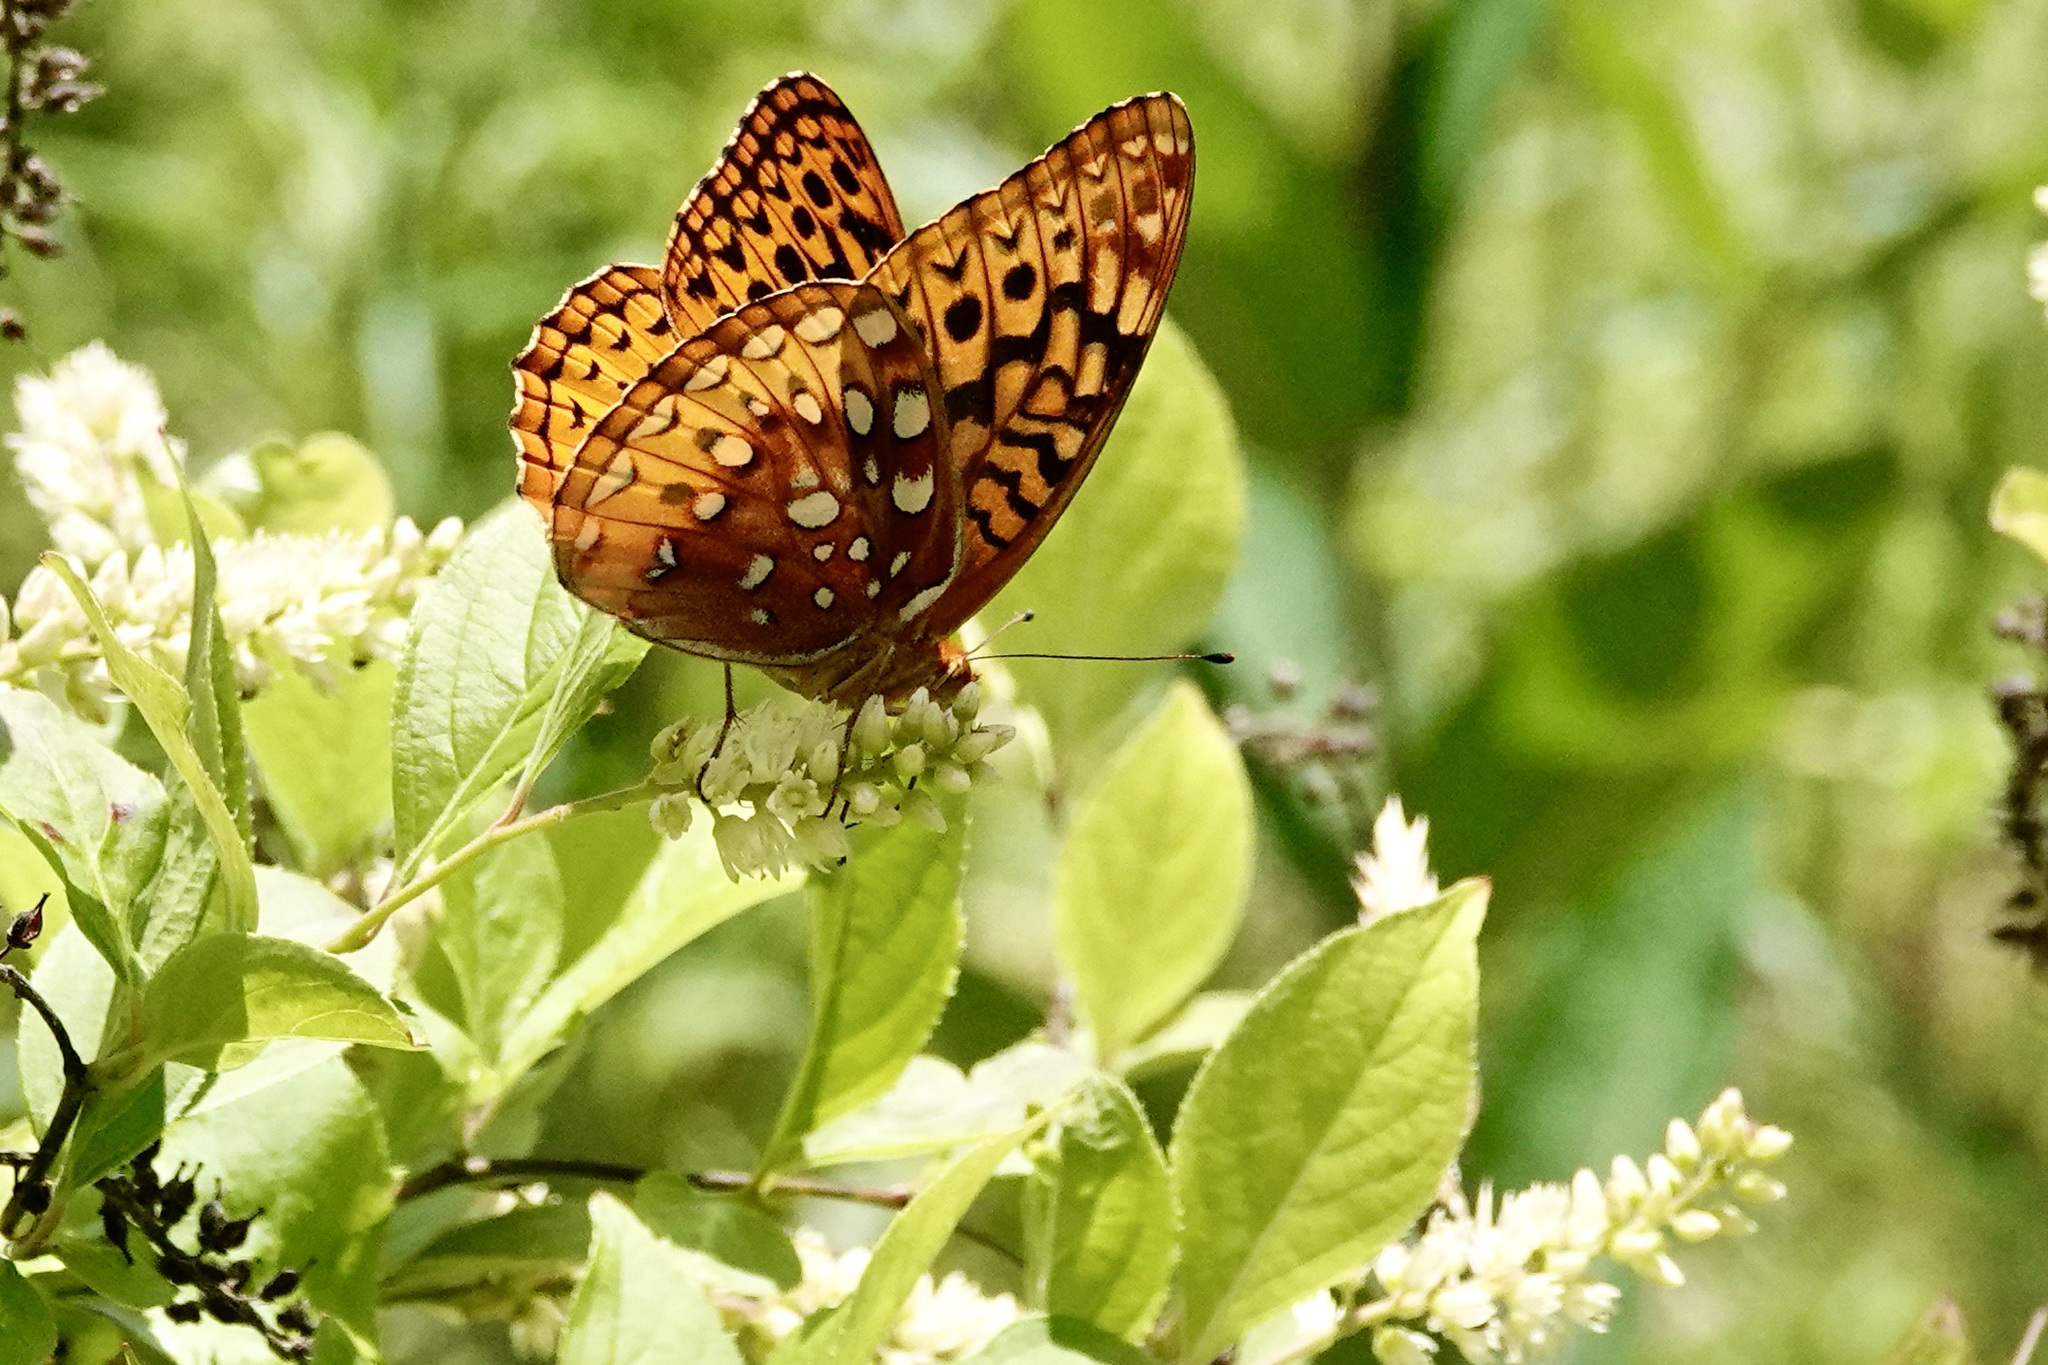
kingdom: Animalia
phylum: Arthropoda
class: Insecta
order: Lepidoptera
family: Nymphalidae
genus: Speyeria
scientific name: Speyeria cybele
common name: Great spangled fritillary
